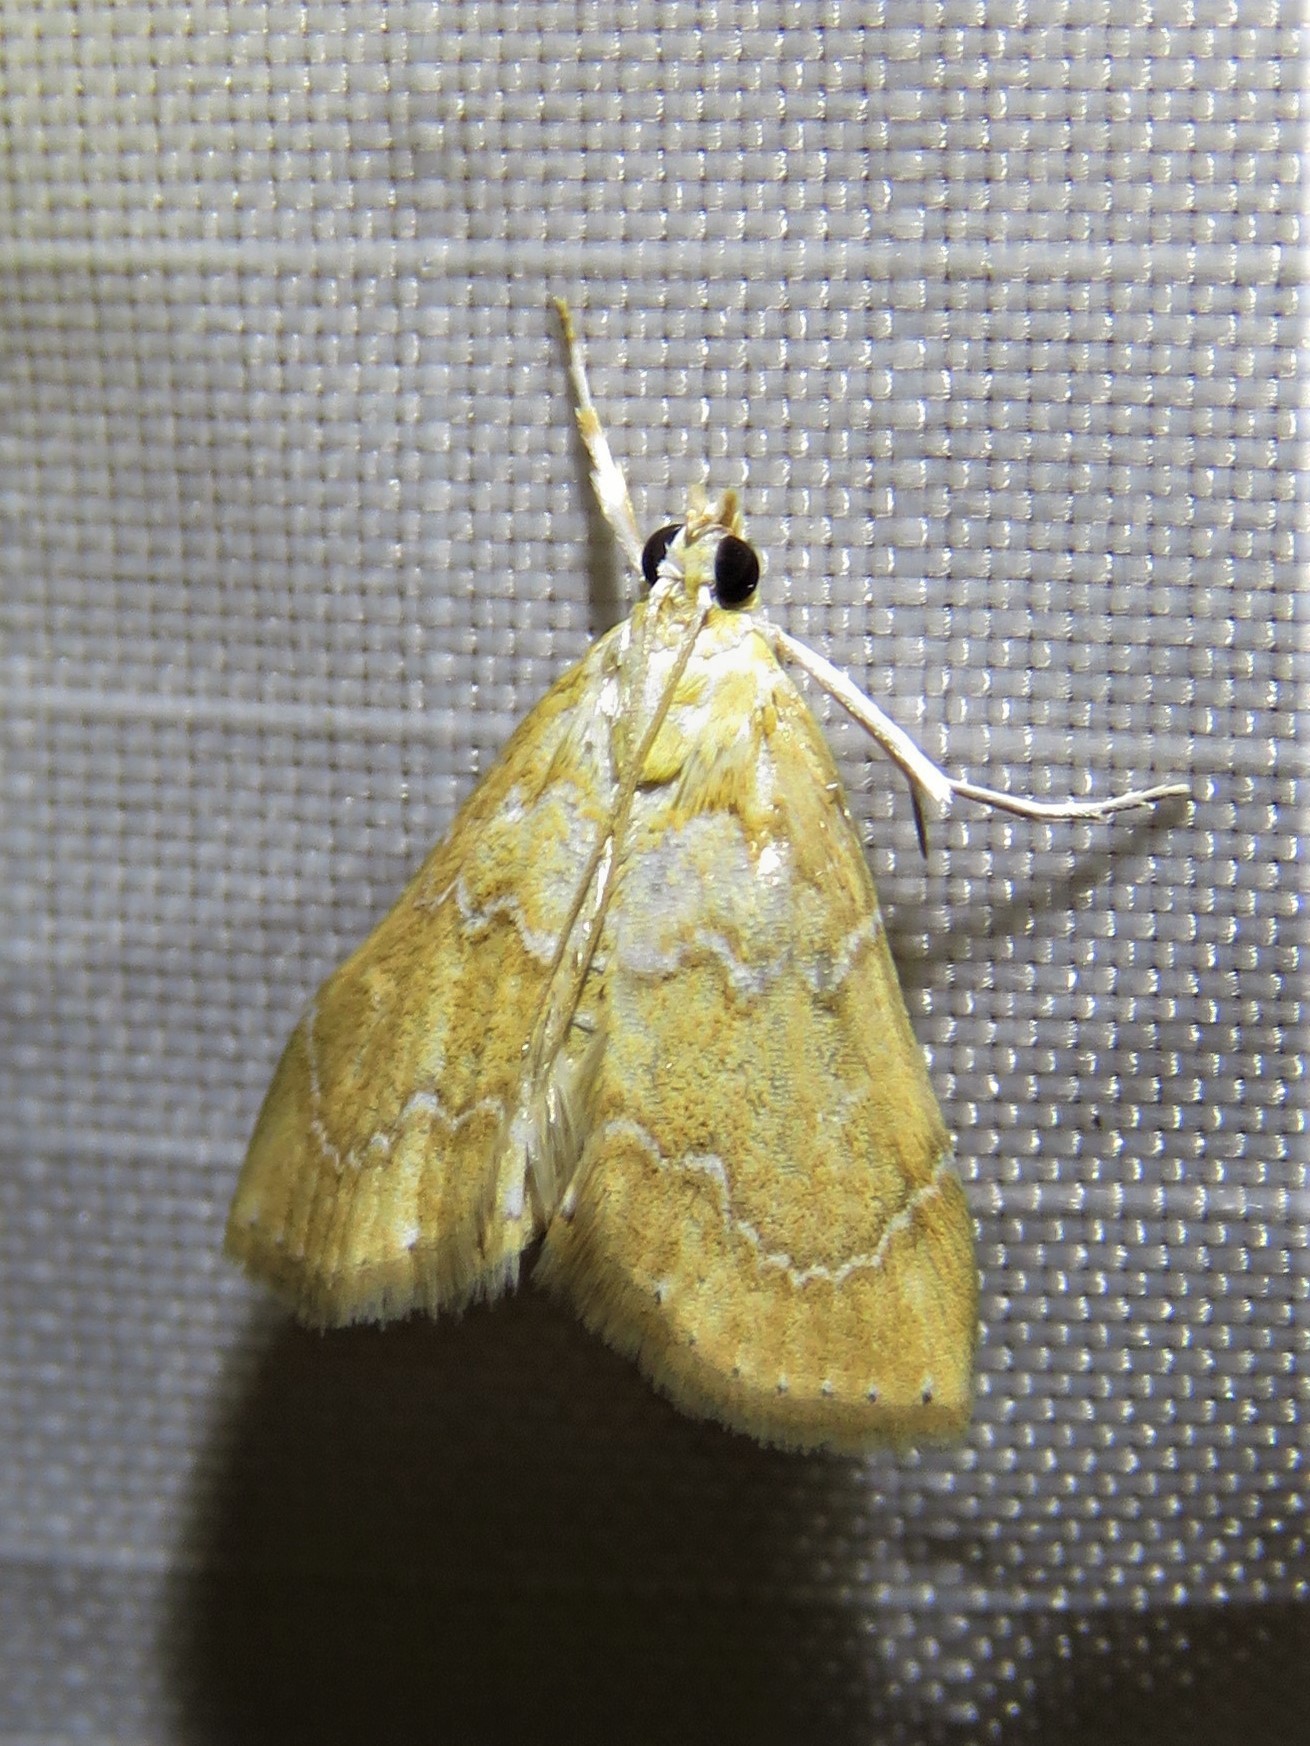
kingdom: Animalia
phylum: Arthropoda
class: Insecta
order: Lepidoptera
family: Crambidae
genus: Glaphyria
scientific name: Glaphyria sesquistrialis
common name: White-roped glaphyria
